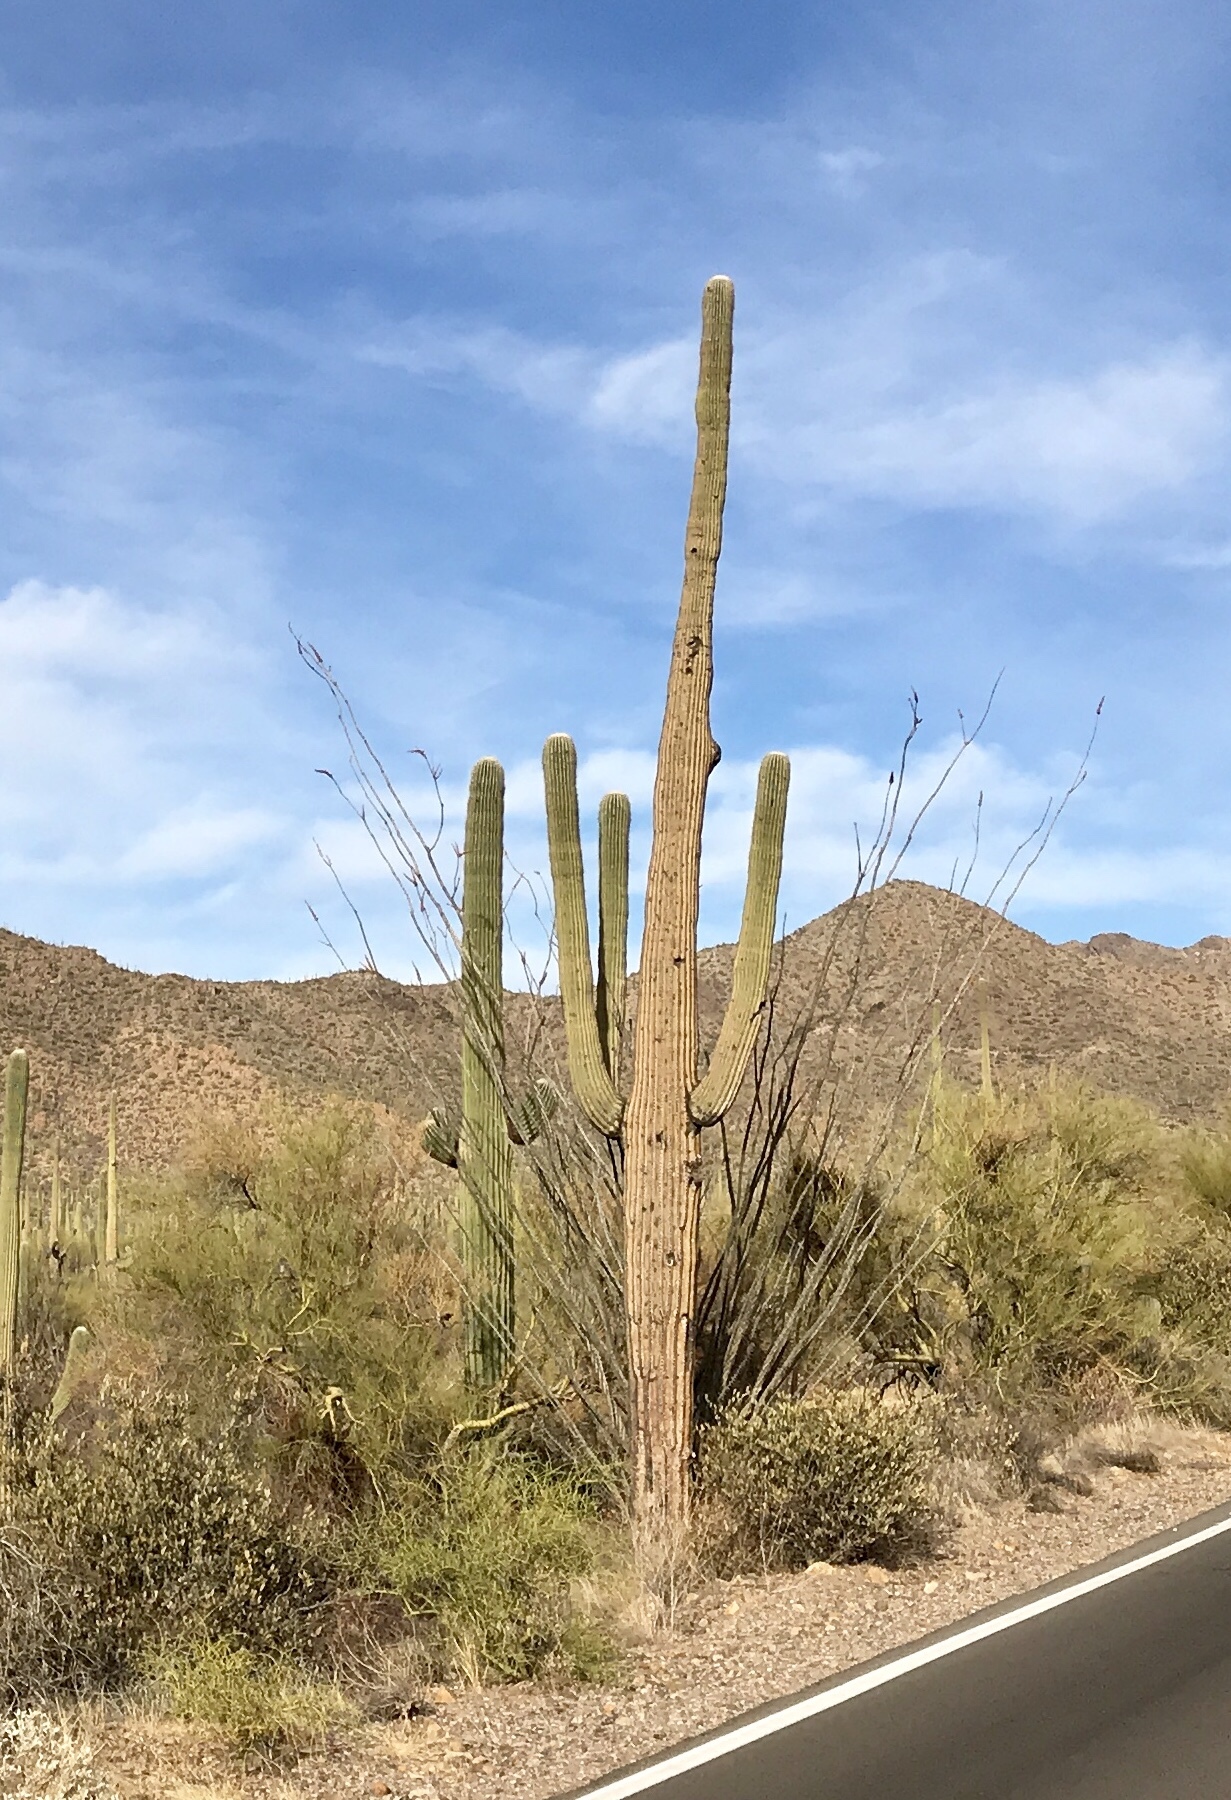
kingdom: Plantae
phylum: Tracheophyta
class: Magnoliopsida
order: Caryophyllales
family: Cactaceae
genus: Carnegiea
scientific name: Carnegiea gigantea
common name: Saguaro
